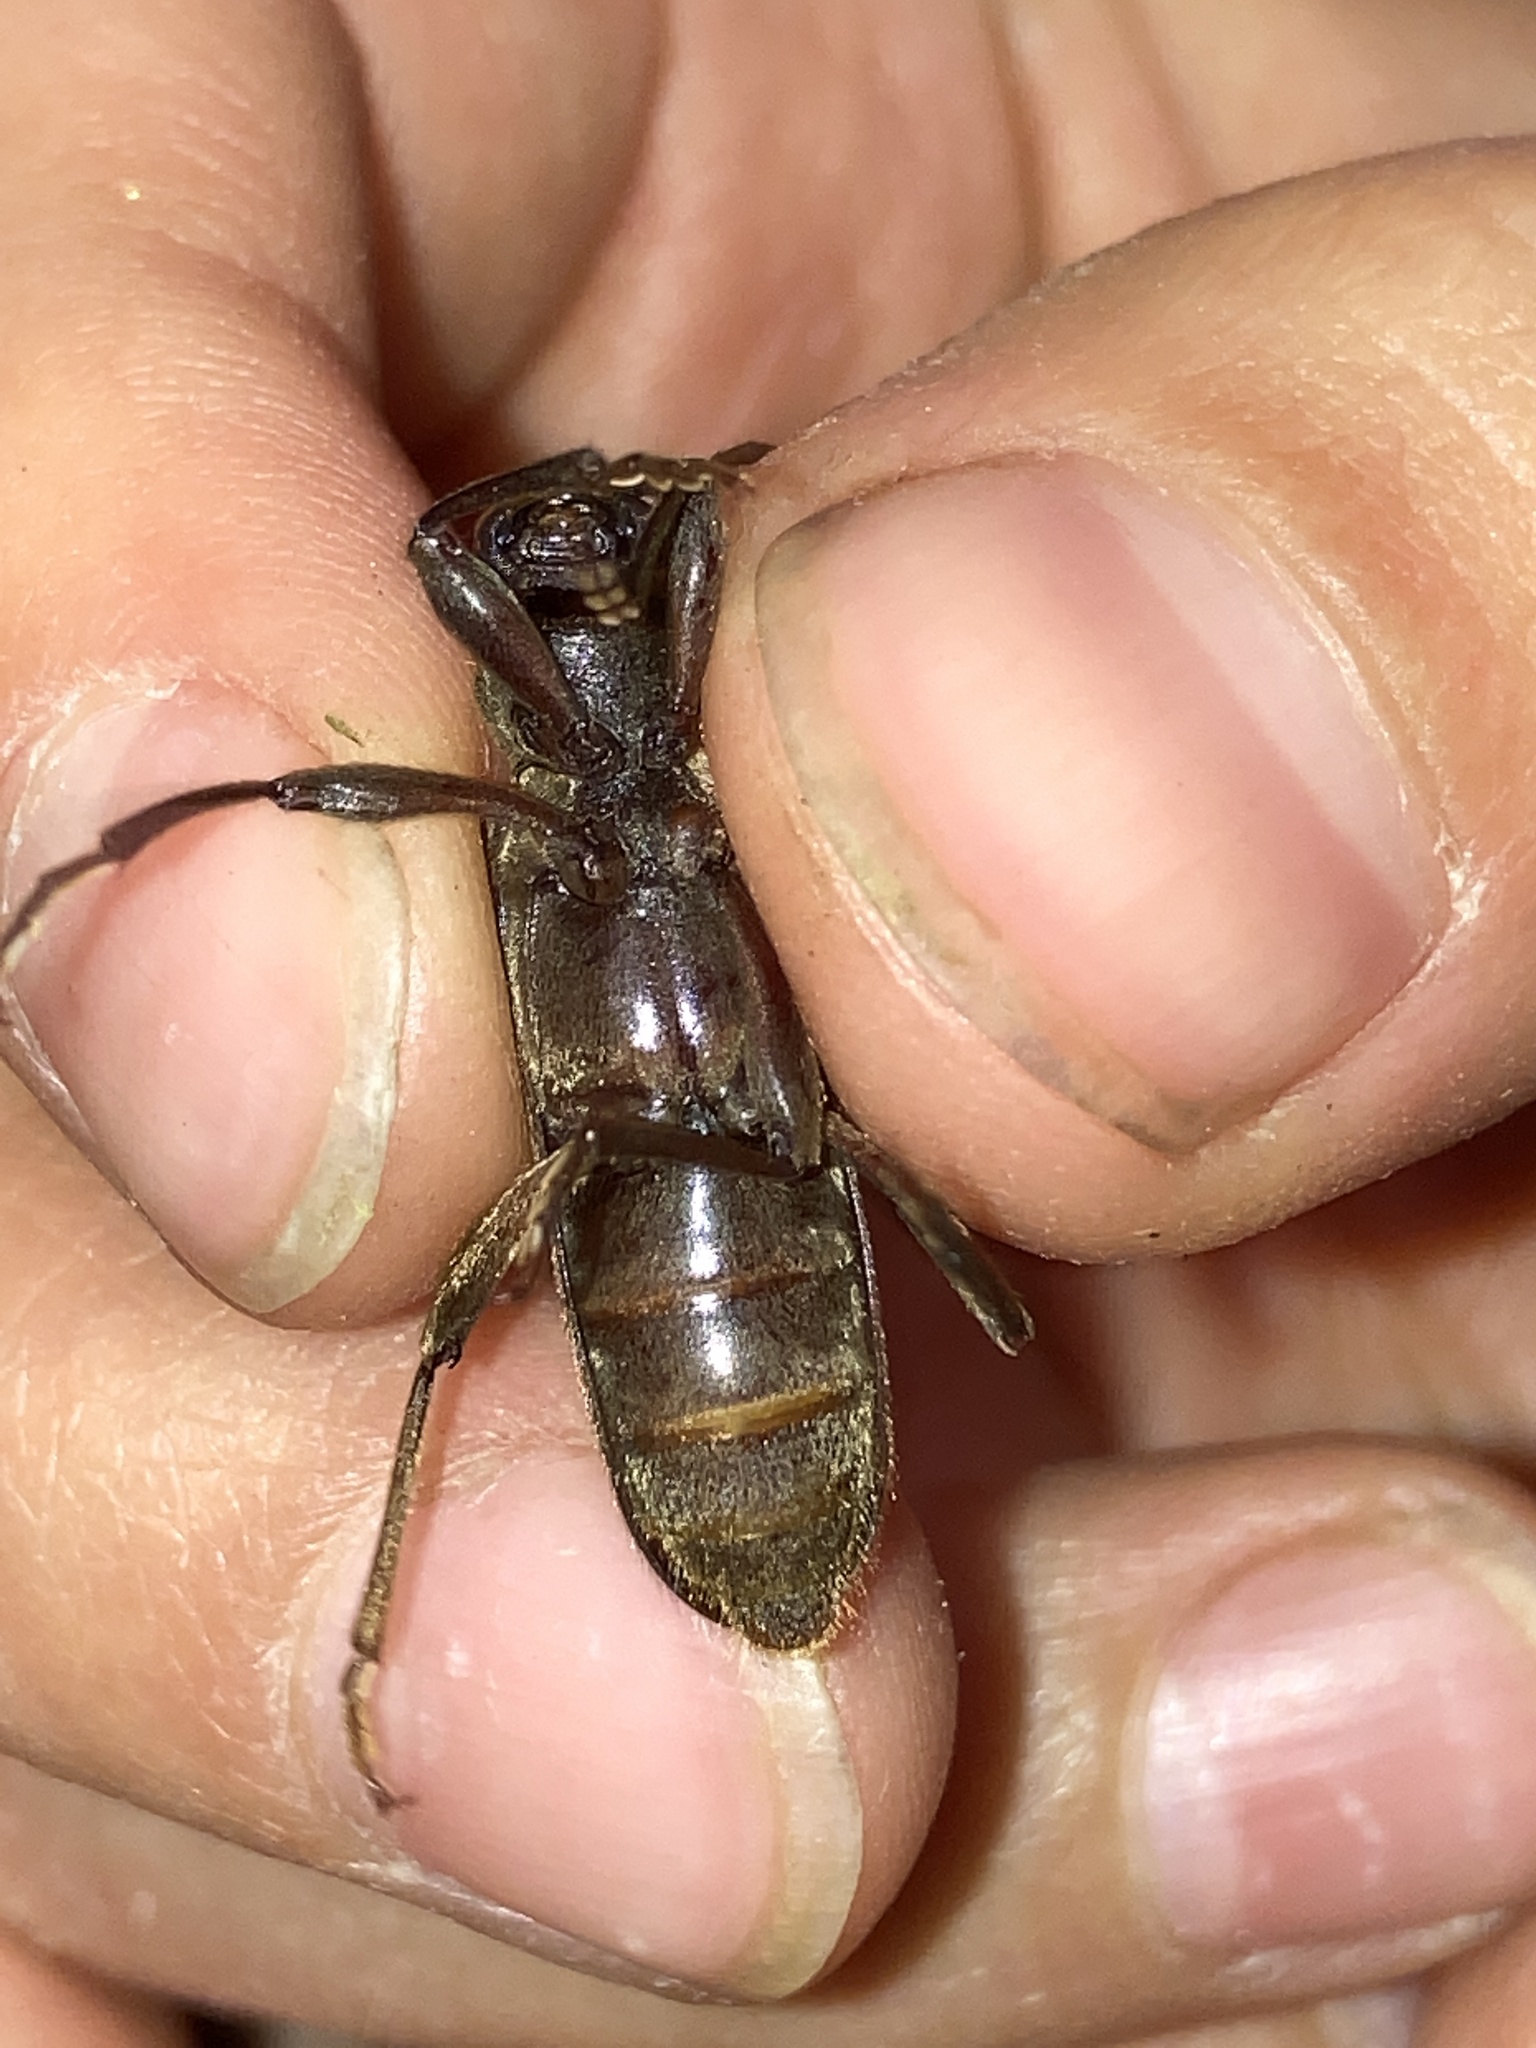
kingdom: Animalia
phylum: Arthropoda
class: Insecta
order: Coleoptera
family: Cerambycidae
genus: Trichoferus
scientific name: Trichoferus campestris
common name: Velvet long horned beetle
